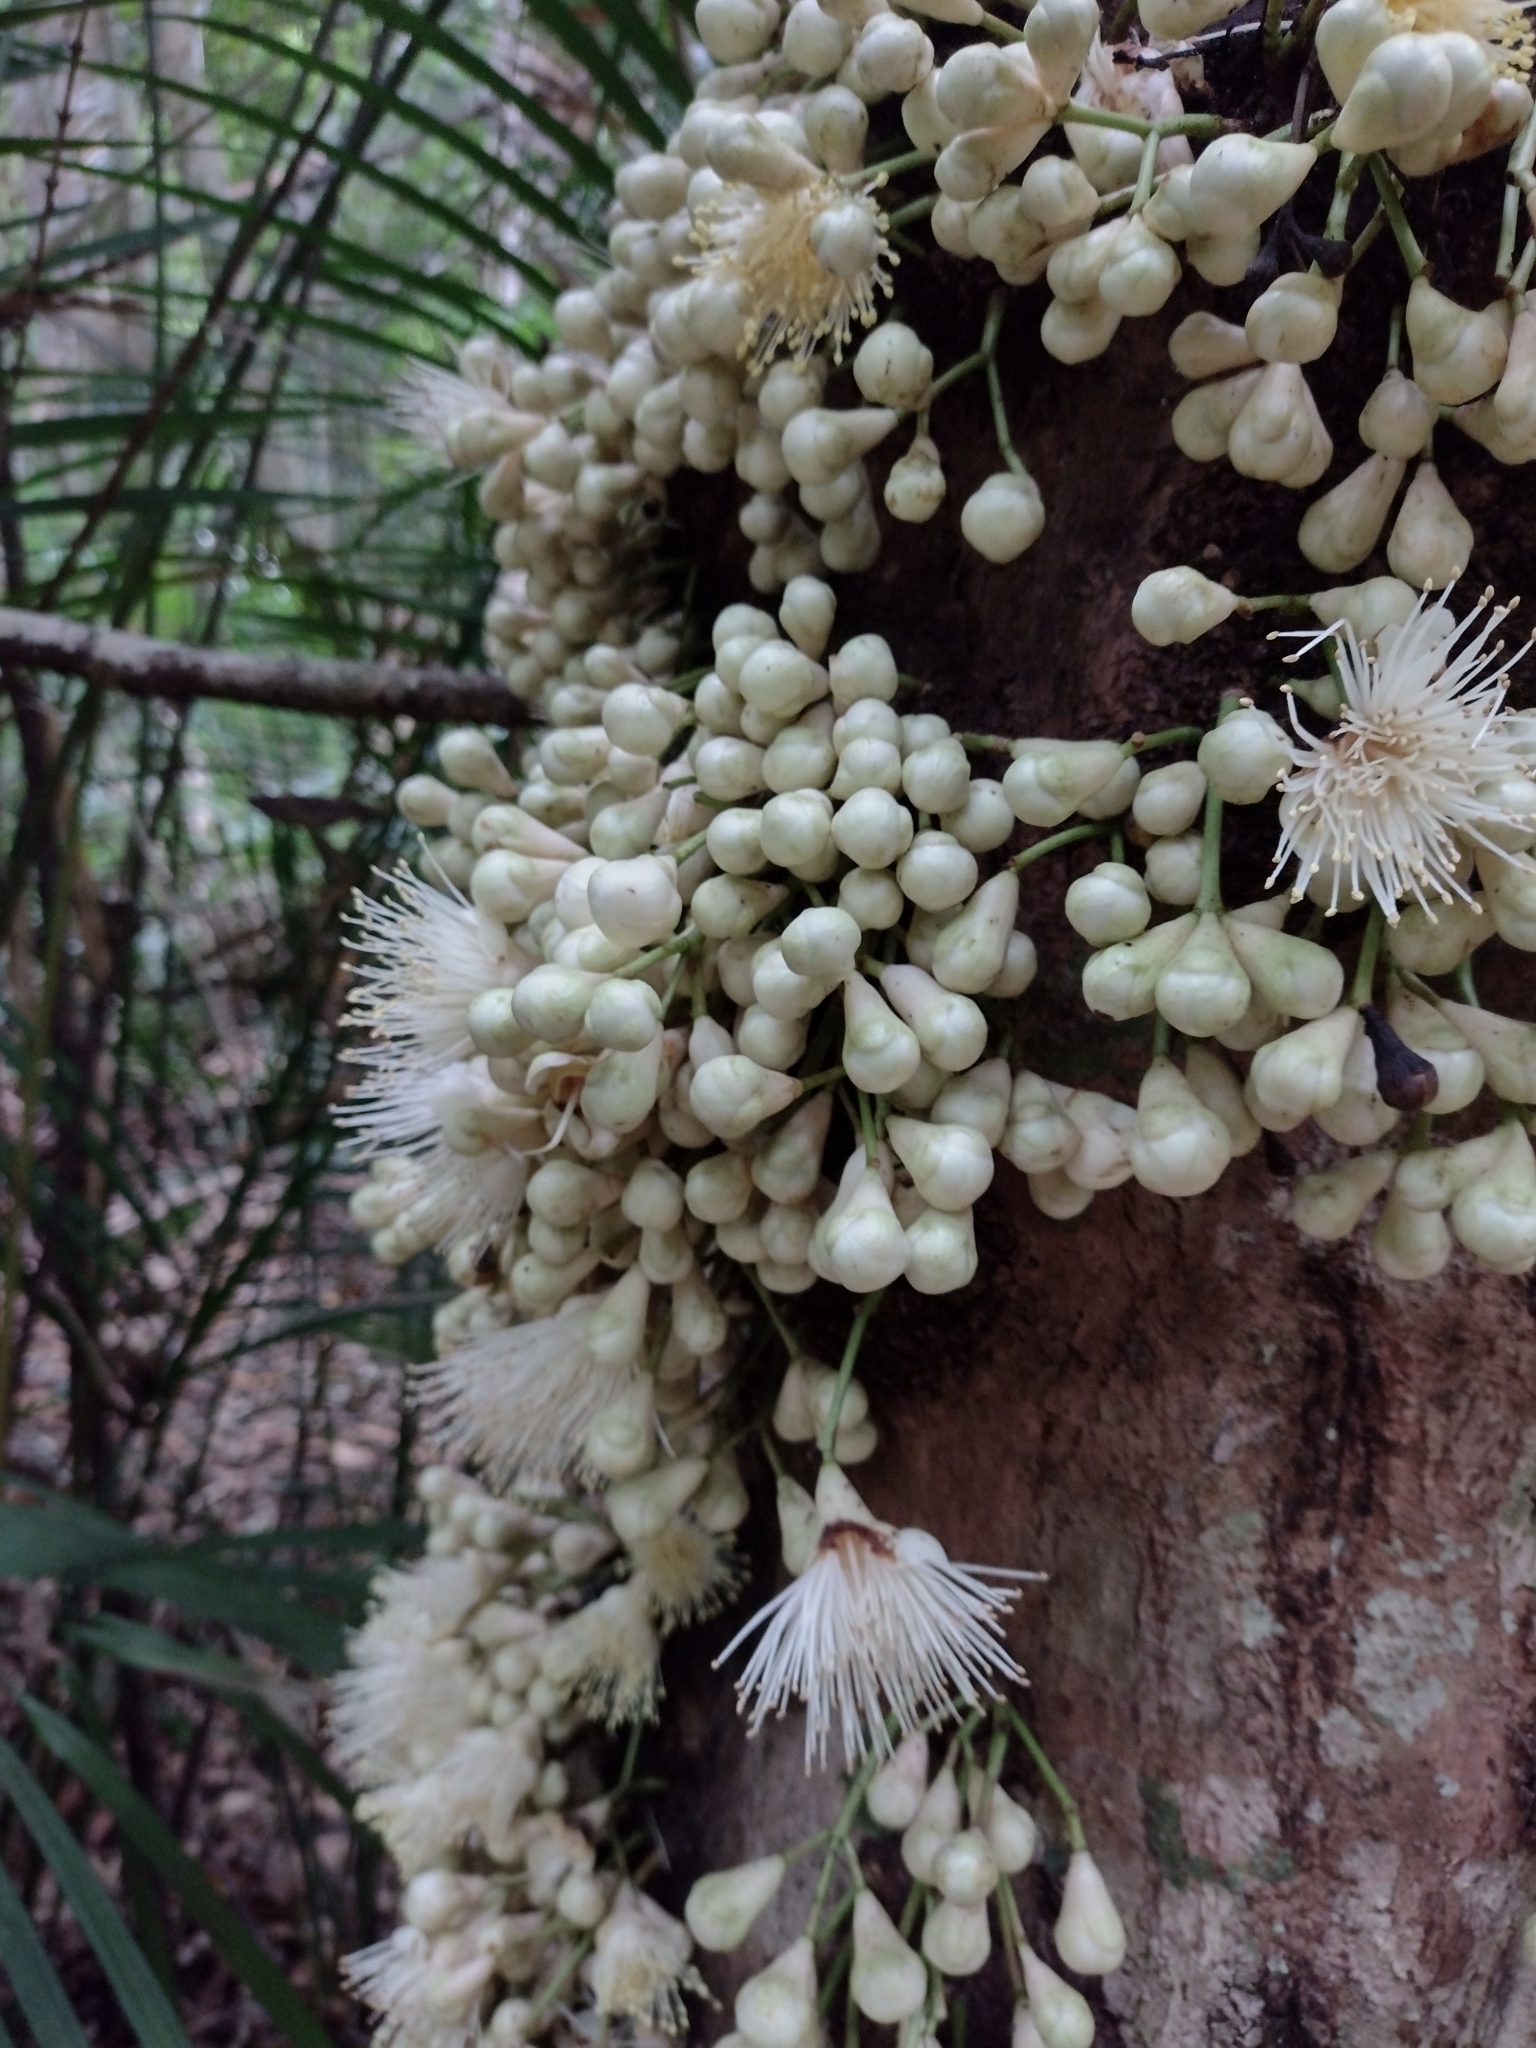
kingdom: Plantae
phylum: Tracheophyta
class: Magnoliopsida
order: Myrtales
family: Myrtaceae
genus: Syzygium
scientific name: Syzygium cormiflorum
